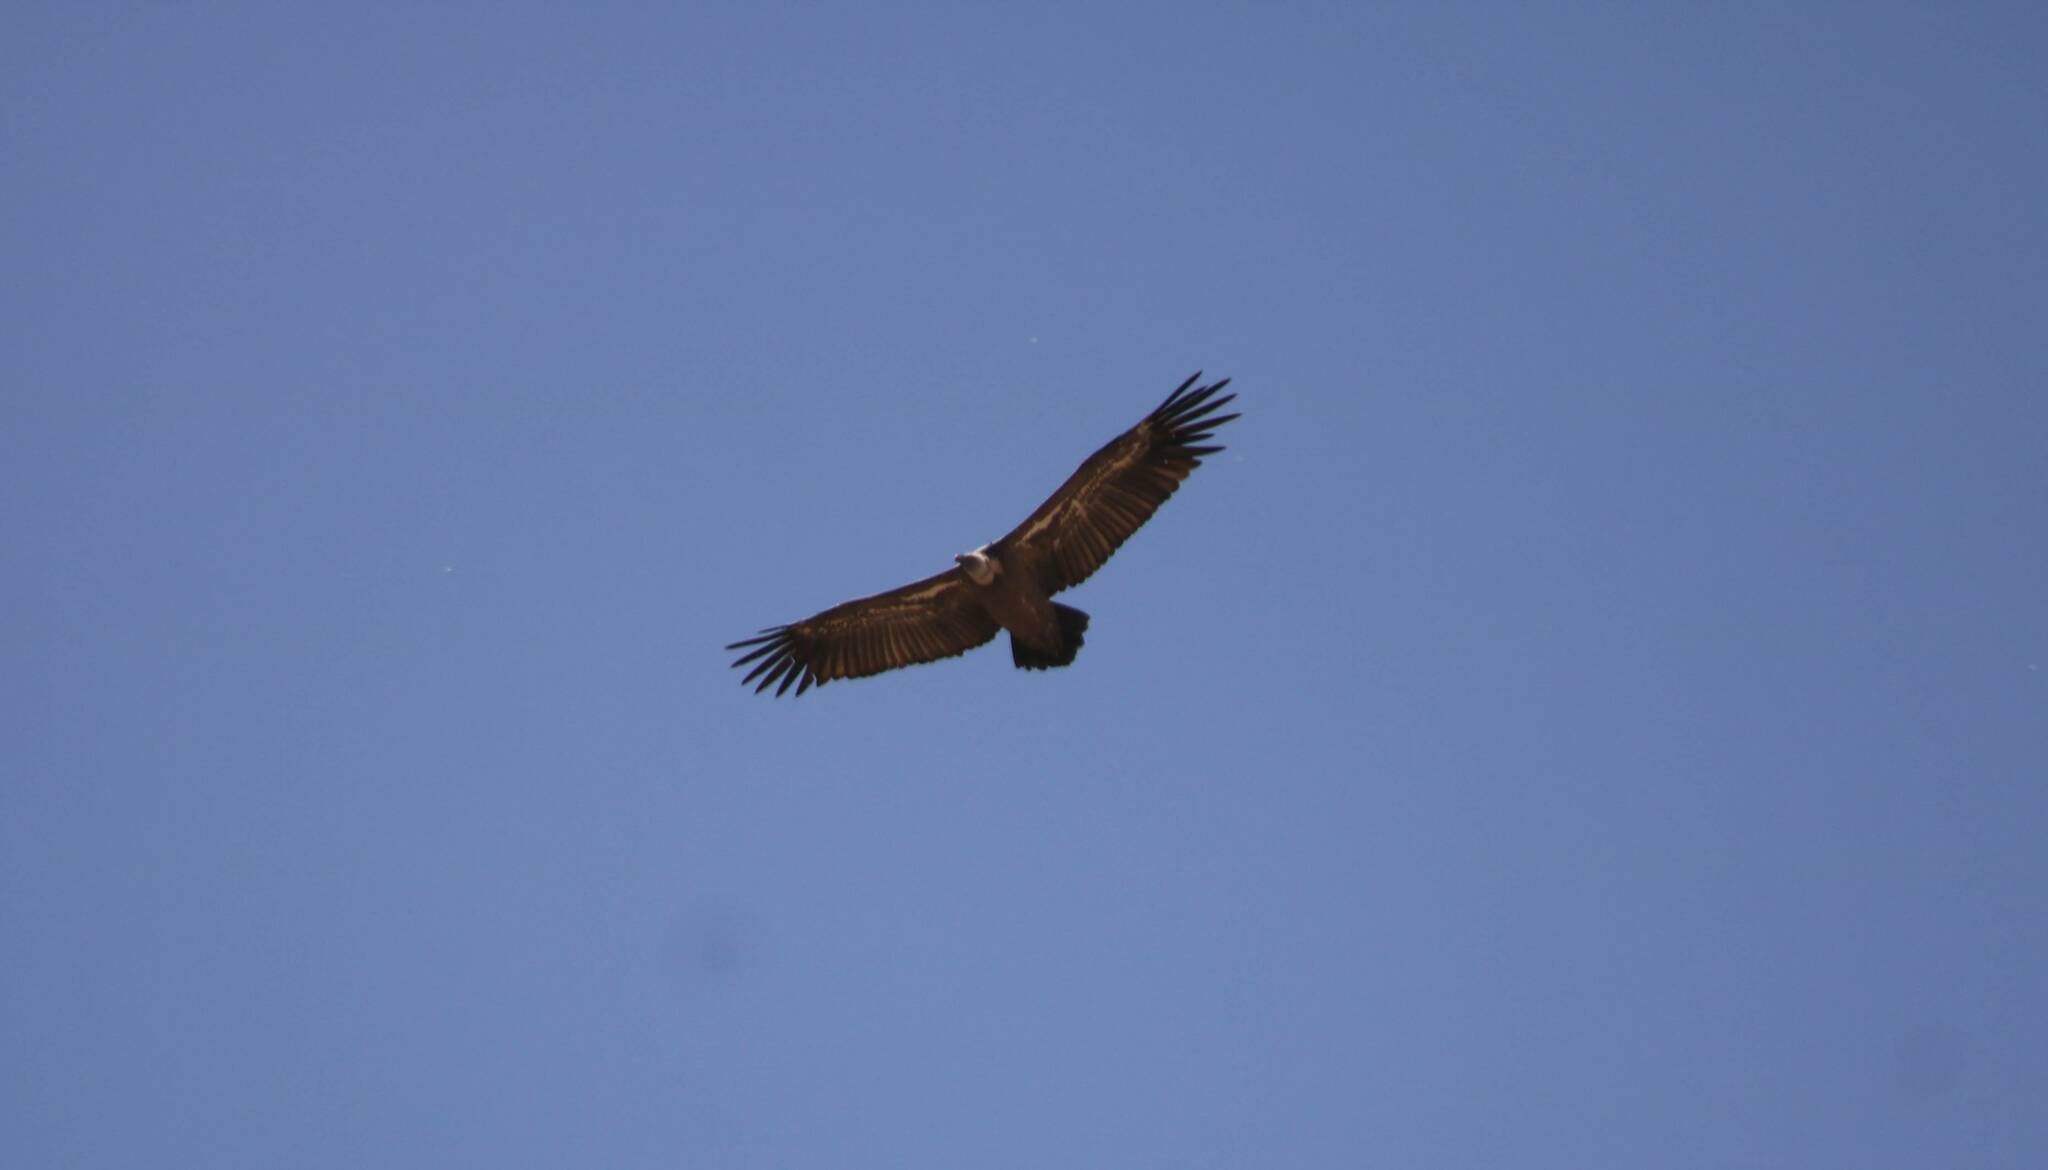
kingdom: Animalia
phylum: Chordata
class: Aves
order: Accipitriformes
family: Accipitridae
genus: Gyps
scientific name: Gyps fulvus
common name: Griffon vulture
